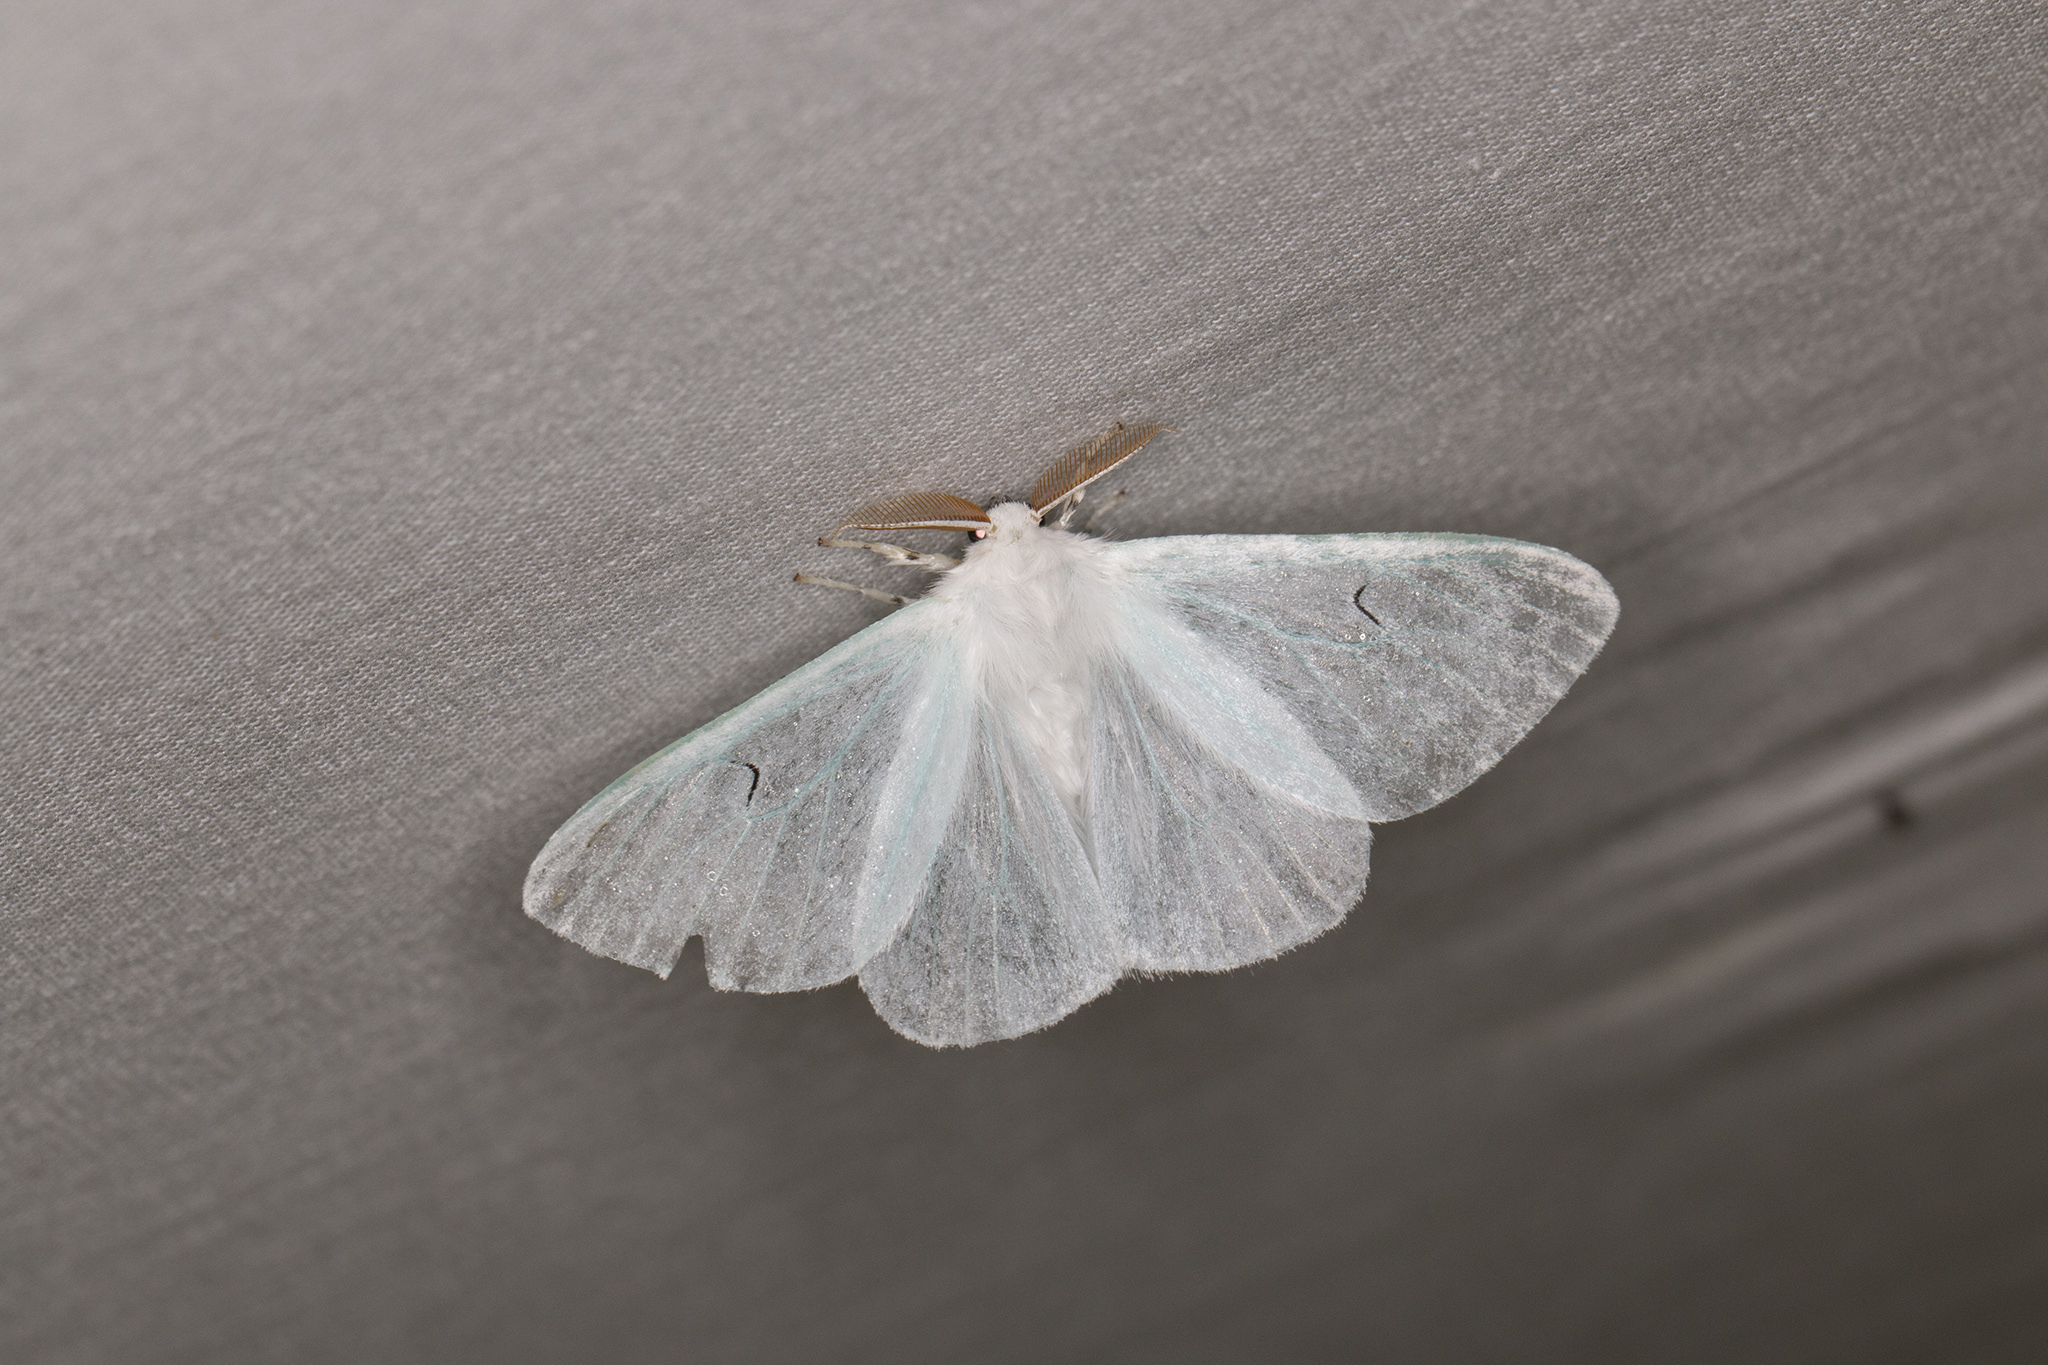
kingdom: Animalia
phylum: Arthropoda
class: Insecta
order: Lepidoptera
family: Erebidae
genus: Arctornis
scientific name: Arctornis l-nigrum
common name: Black v moth
